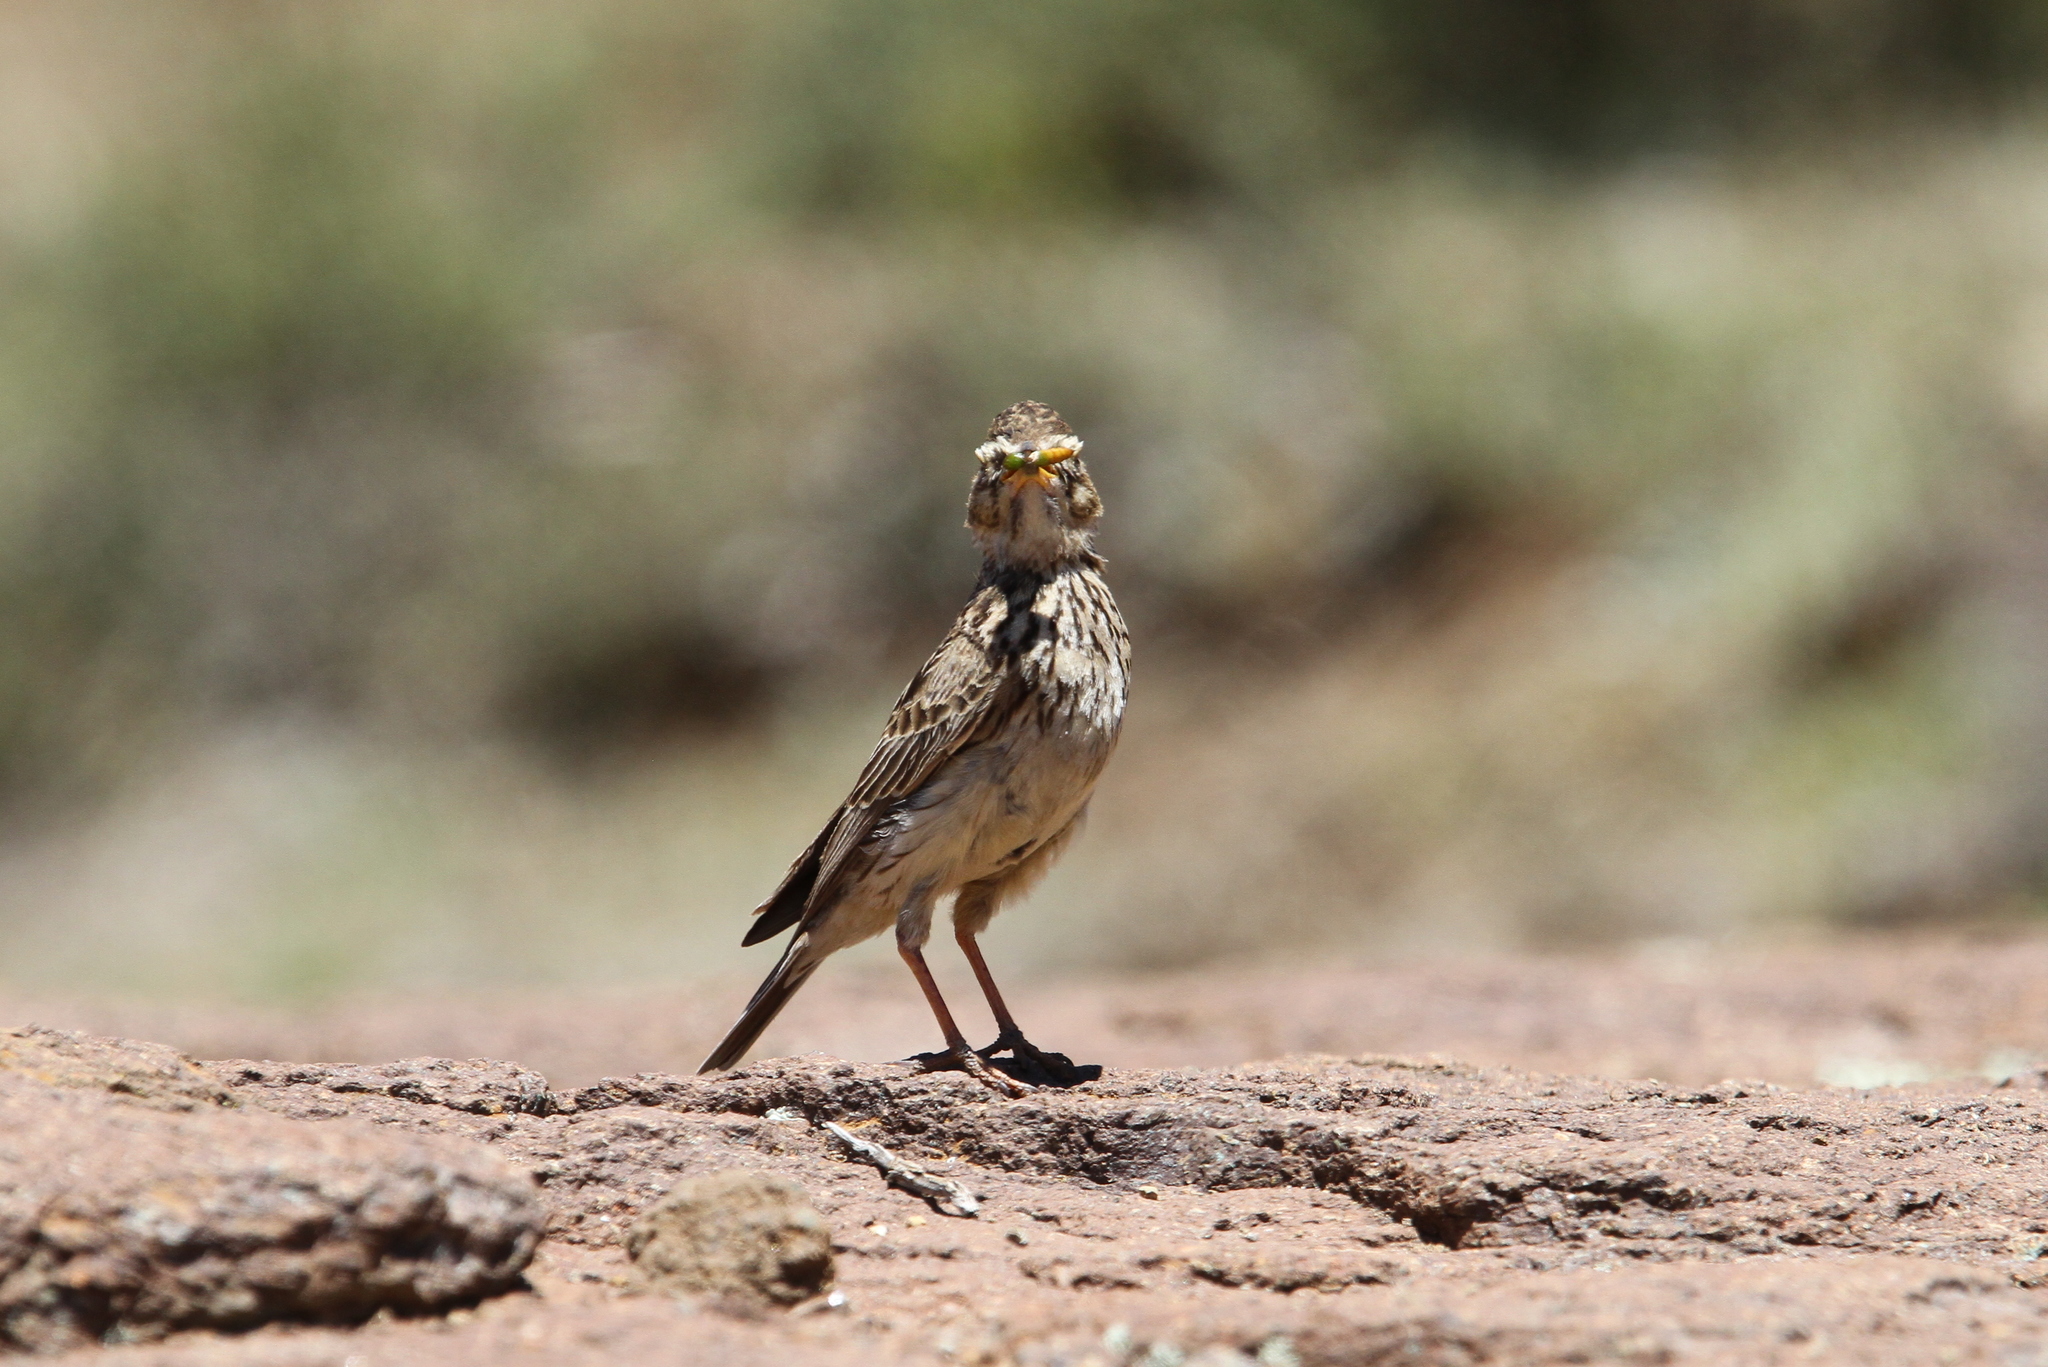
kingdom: Animalia
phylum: Chordata
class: Aves
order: Passeriformes
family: Alaudidae
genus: Galerida
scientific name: Galerida magnirostris
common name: Large-billed lark
